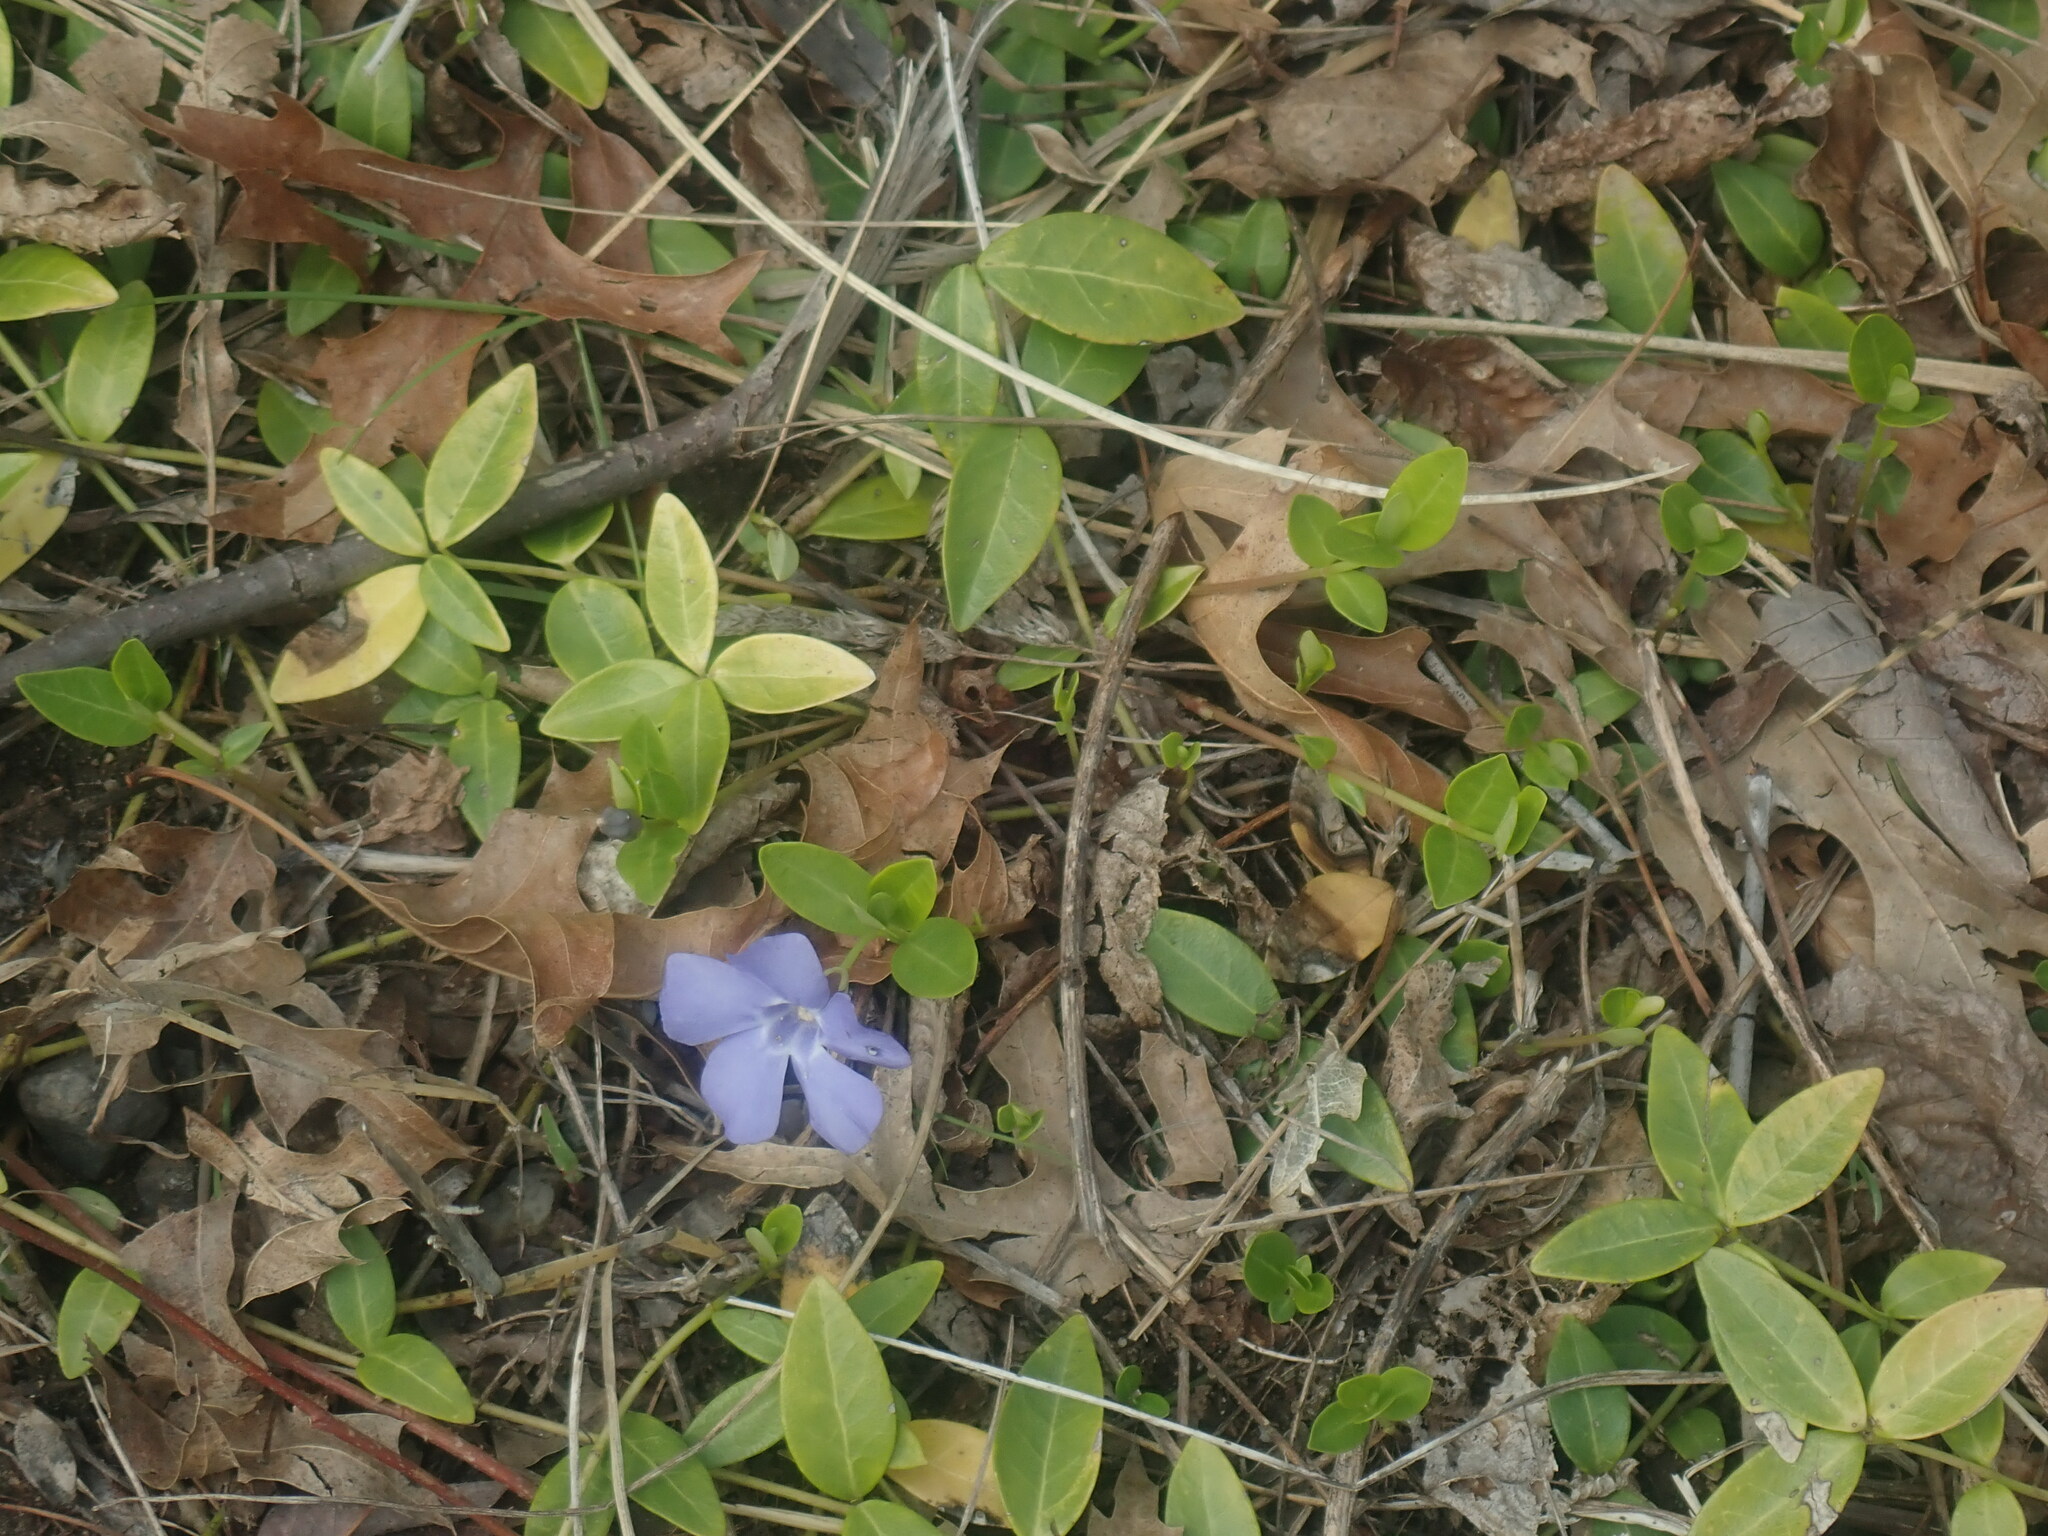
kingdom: Plantae
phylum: Tracheophyta
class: Magnoliopsida
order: Gentianales
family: Apocynaceae
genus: Vinca
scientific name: Vinca minor
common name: Lesser periwinkle
